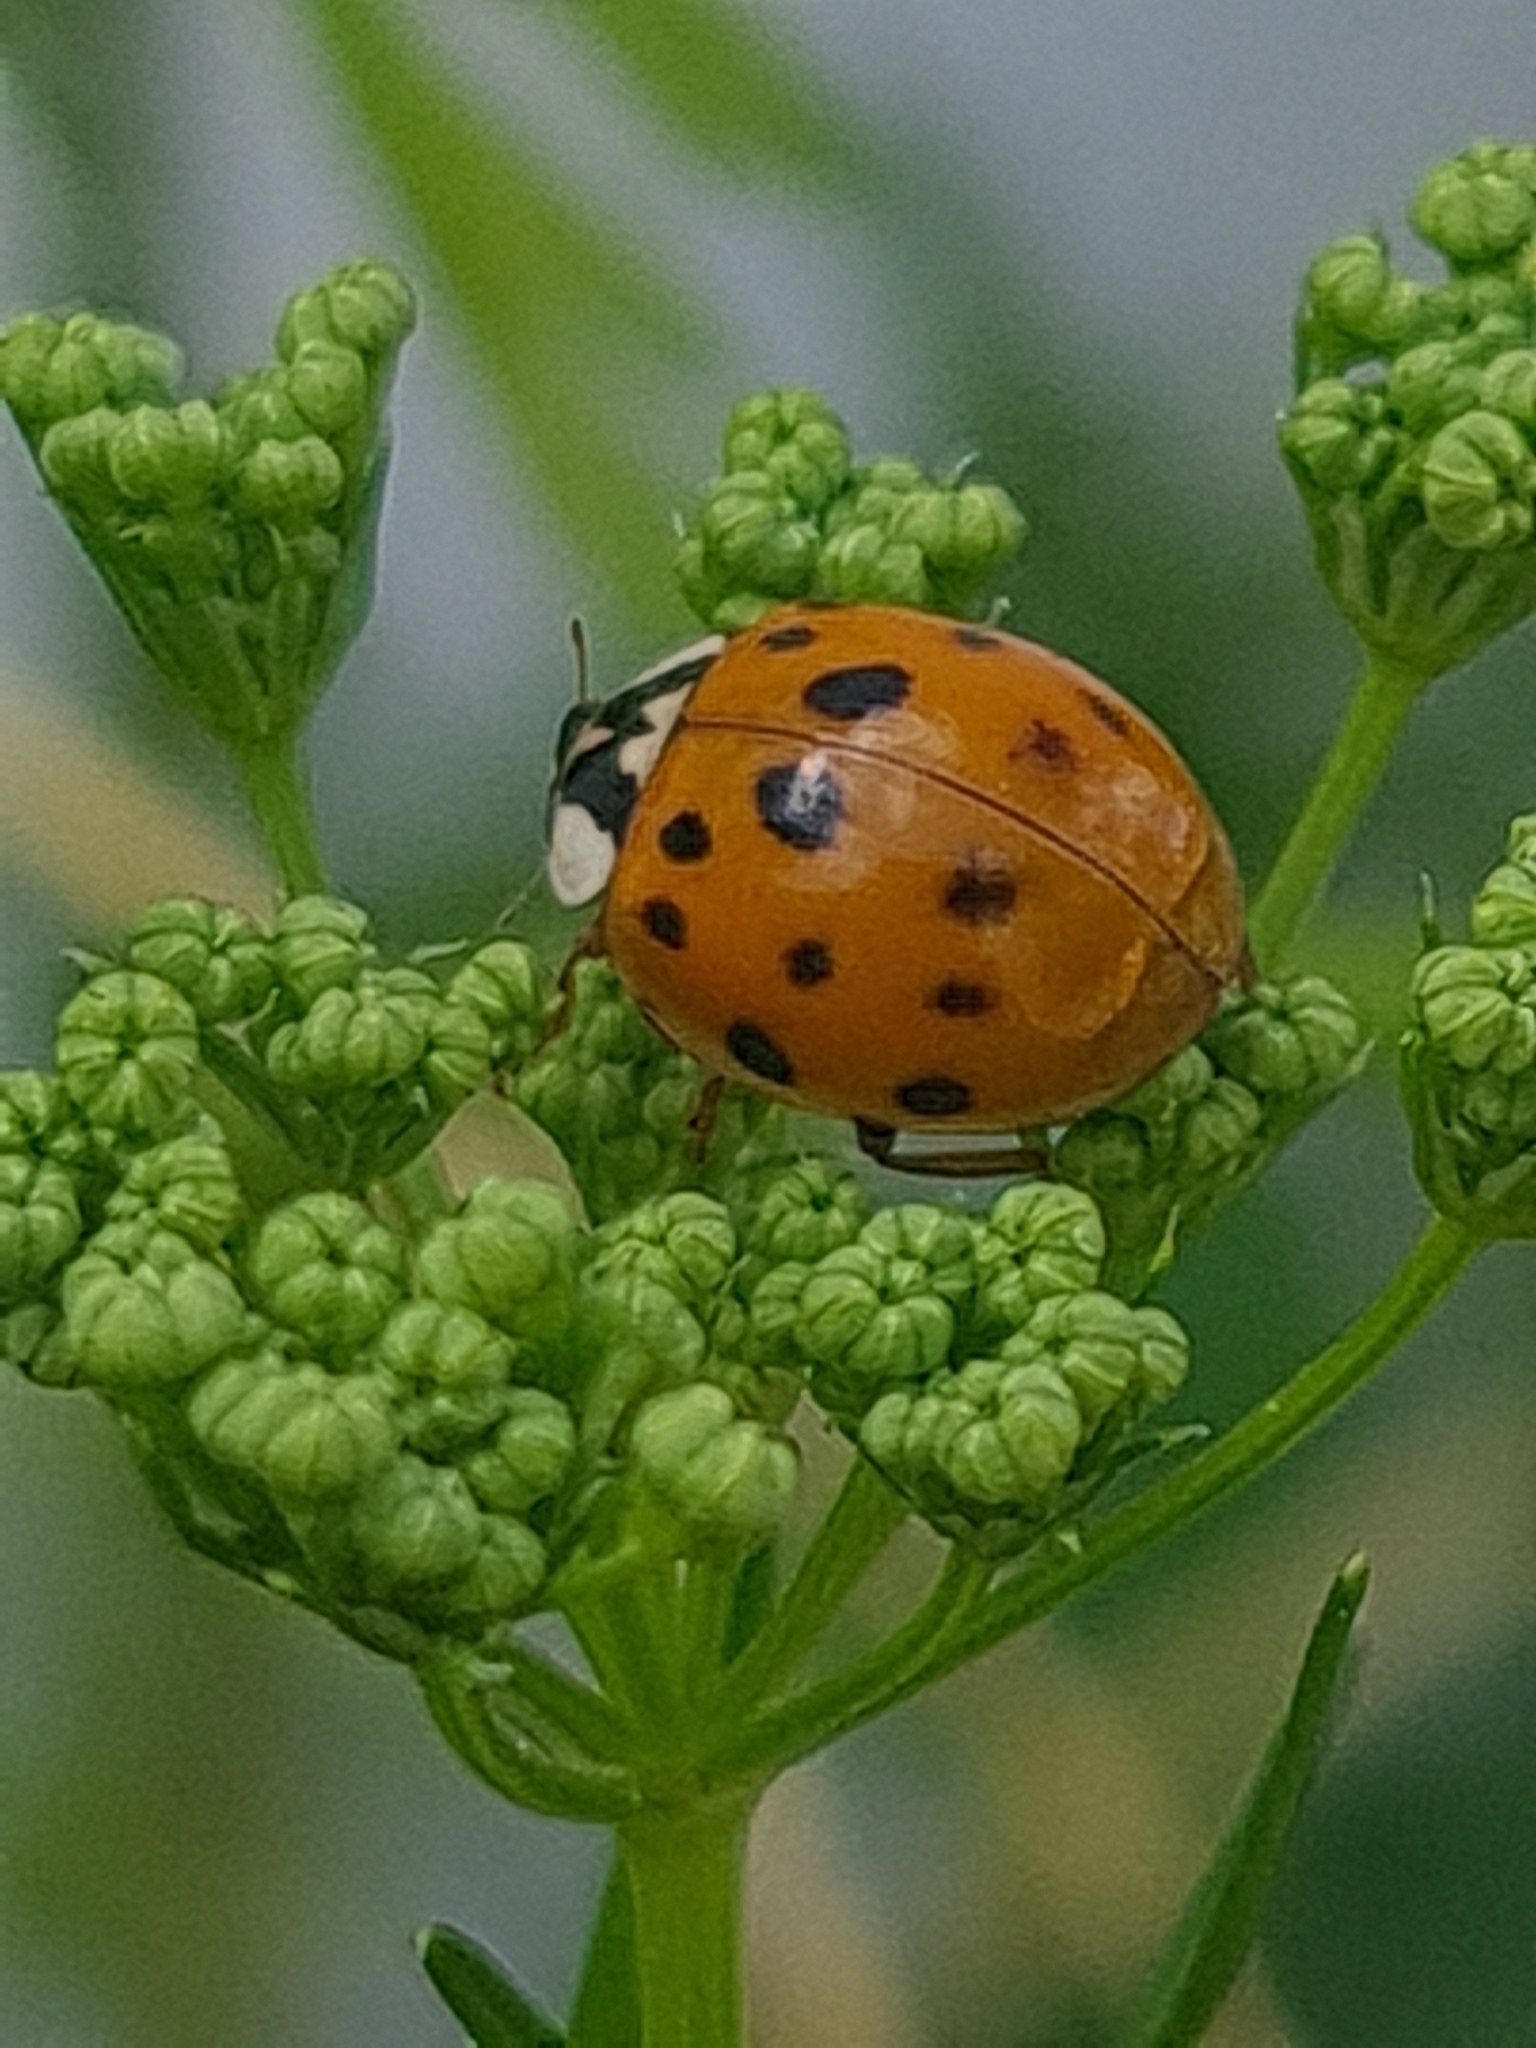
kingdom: Animalia
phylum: Arthropoda
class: Insecta
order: Coleoptera
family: Coccinellidae
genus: Harmonia
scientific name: Harmonia axyridis
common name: Harlequin ladybird
